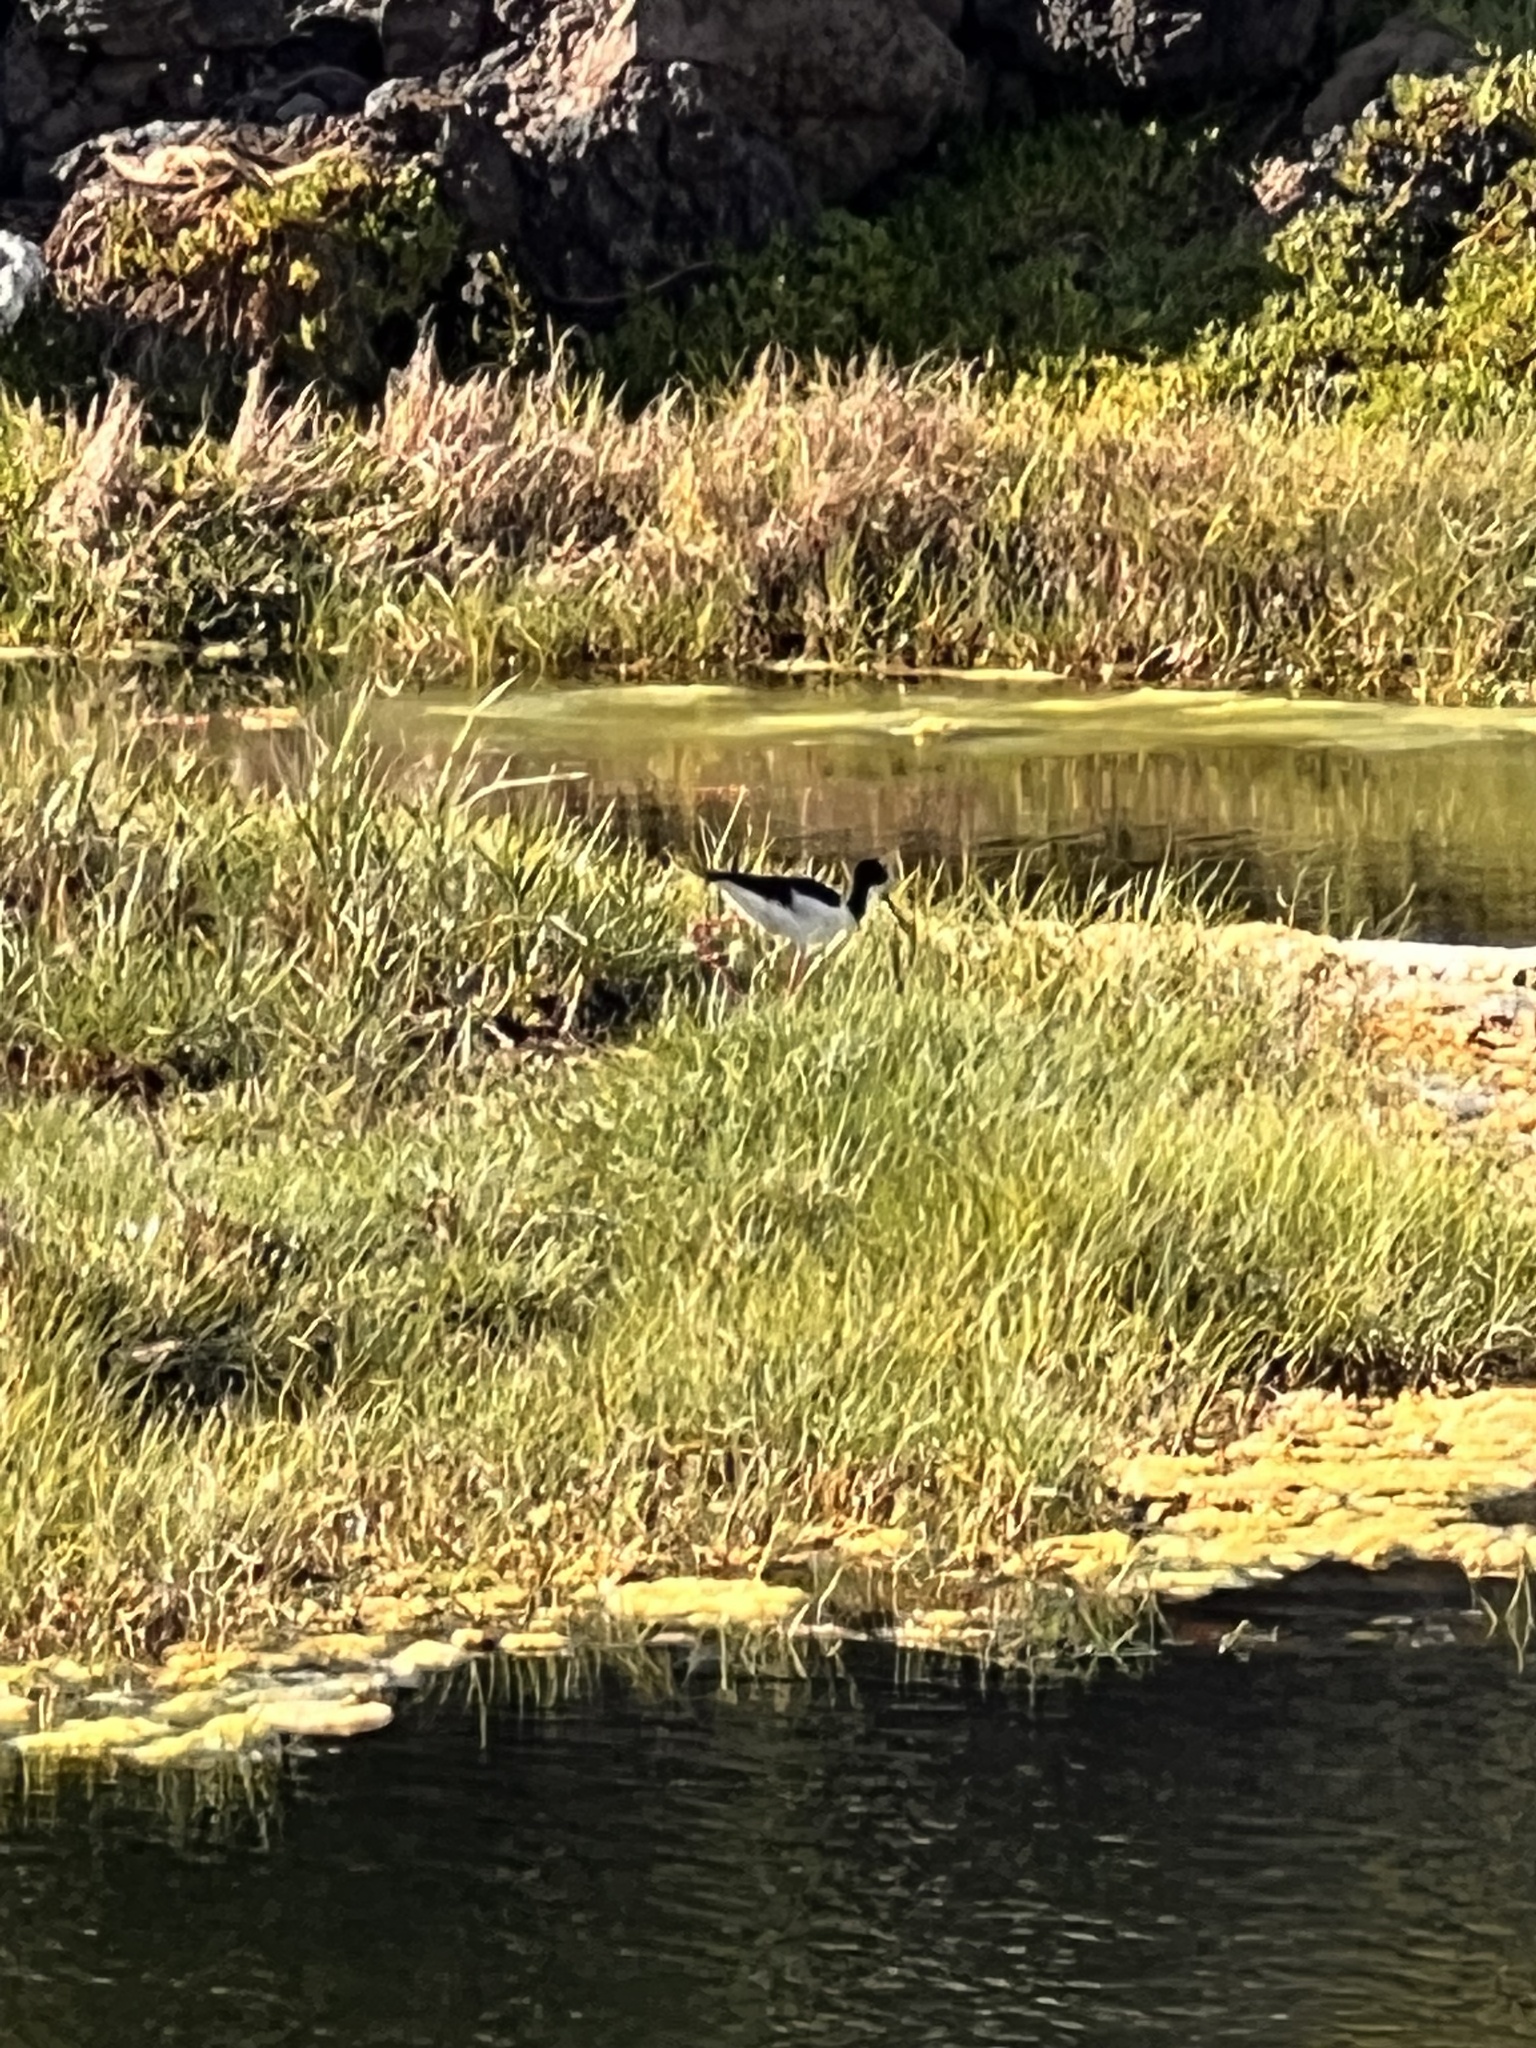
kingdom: Animalia
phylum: Chordata
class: Aves
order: Charadriiformes
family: Recurvirostridae
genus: Himantopus
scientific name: Himantopus mexicanus
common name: Black-necked stilt
